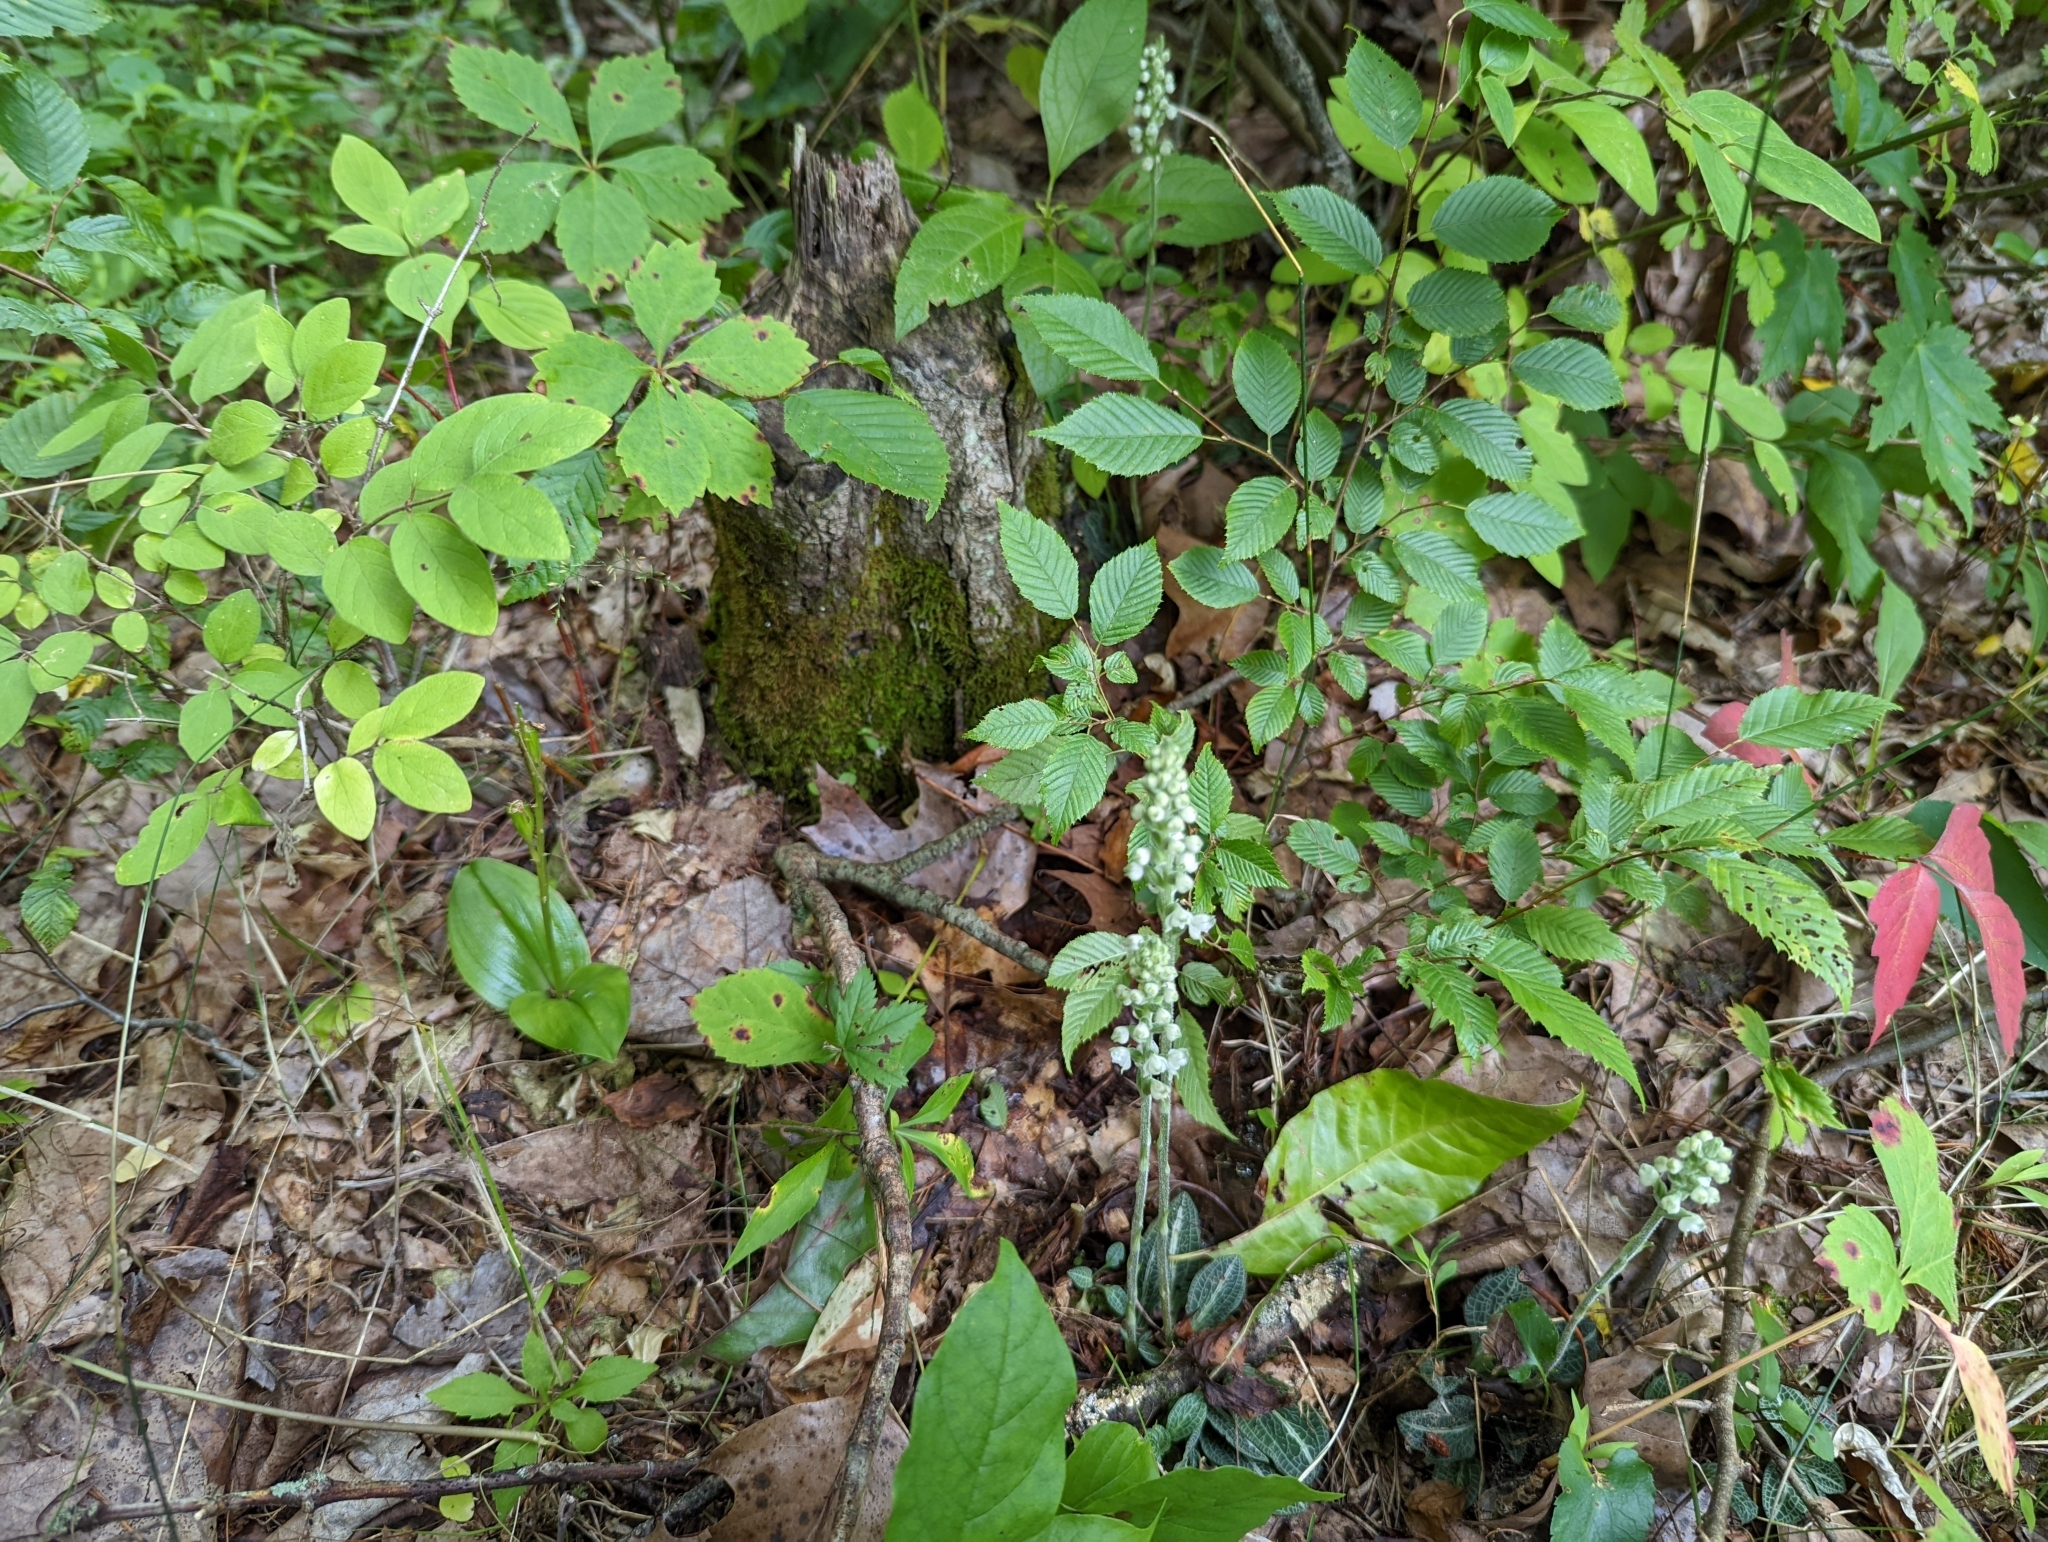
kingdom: Plantae
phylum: Tracheophyta
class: Liliopsida
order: Asparagales
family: Orchidaceae
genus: Goodyera
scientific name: Goodyera pubescens
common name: Downy rattlesnake-plantain
